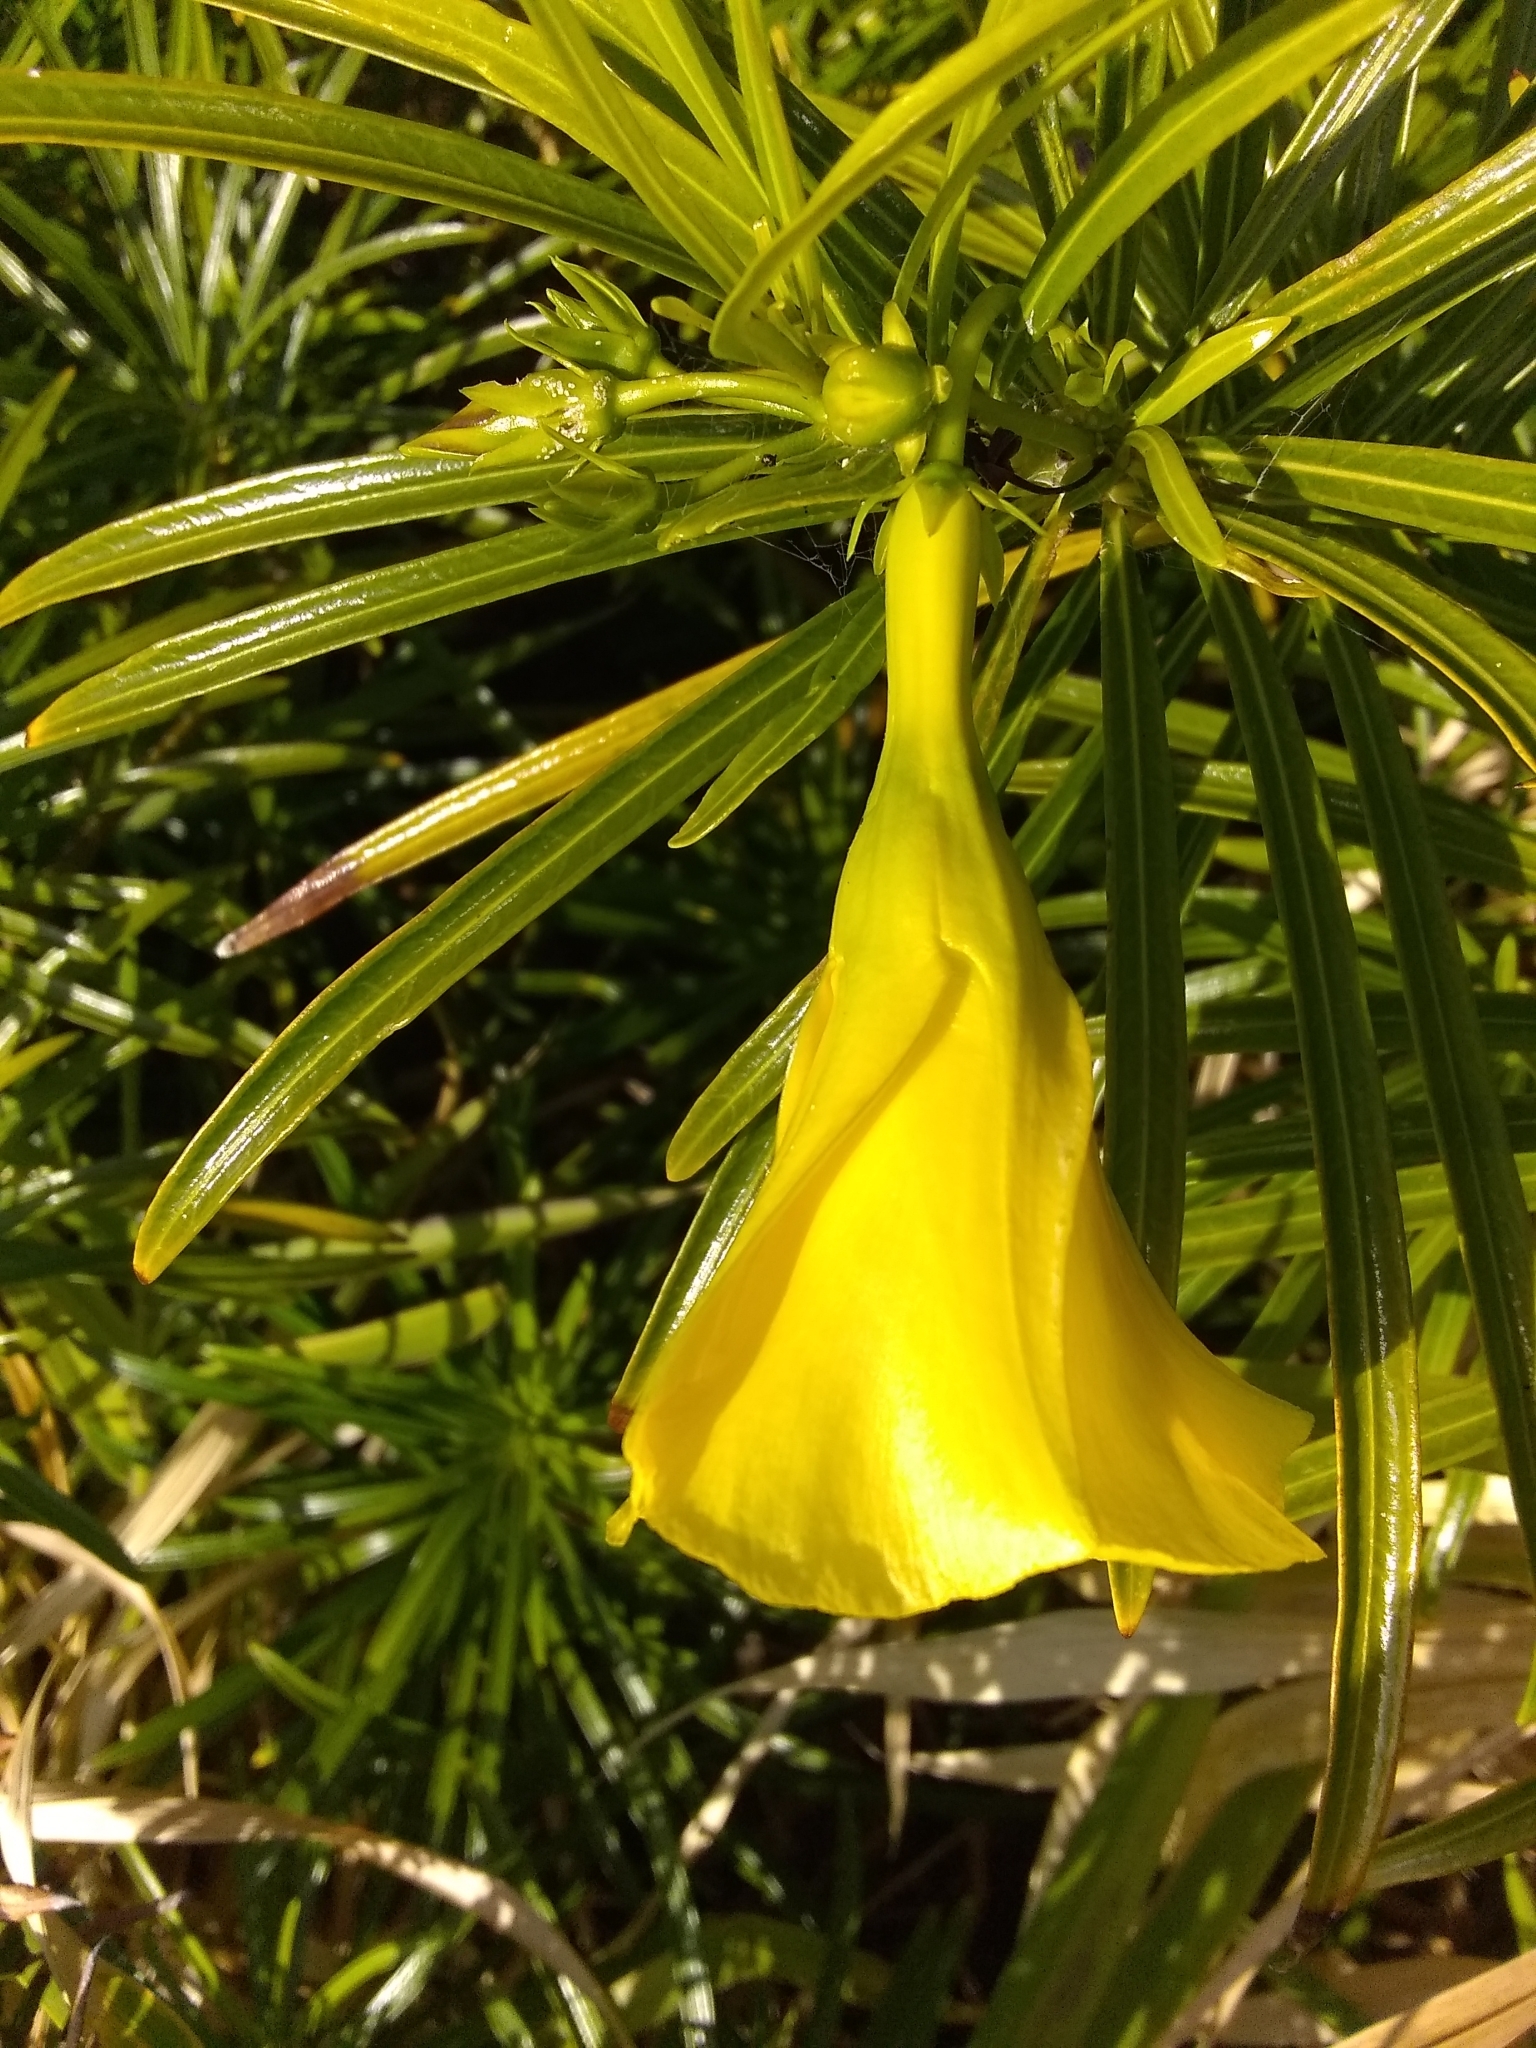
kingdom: Plantae
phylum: Tracheophyta
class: Magnoliopsida
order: Gentianales
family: Apocynaceae
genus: Cascabela
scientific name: Cascabela thevetia
